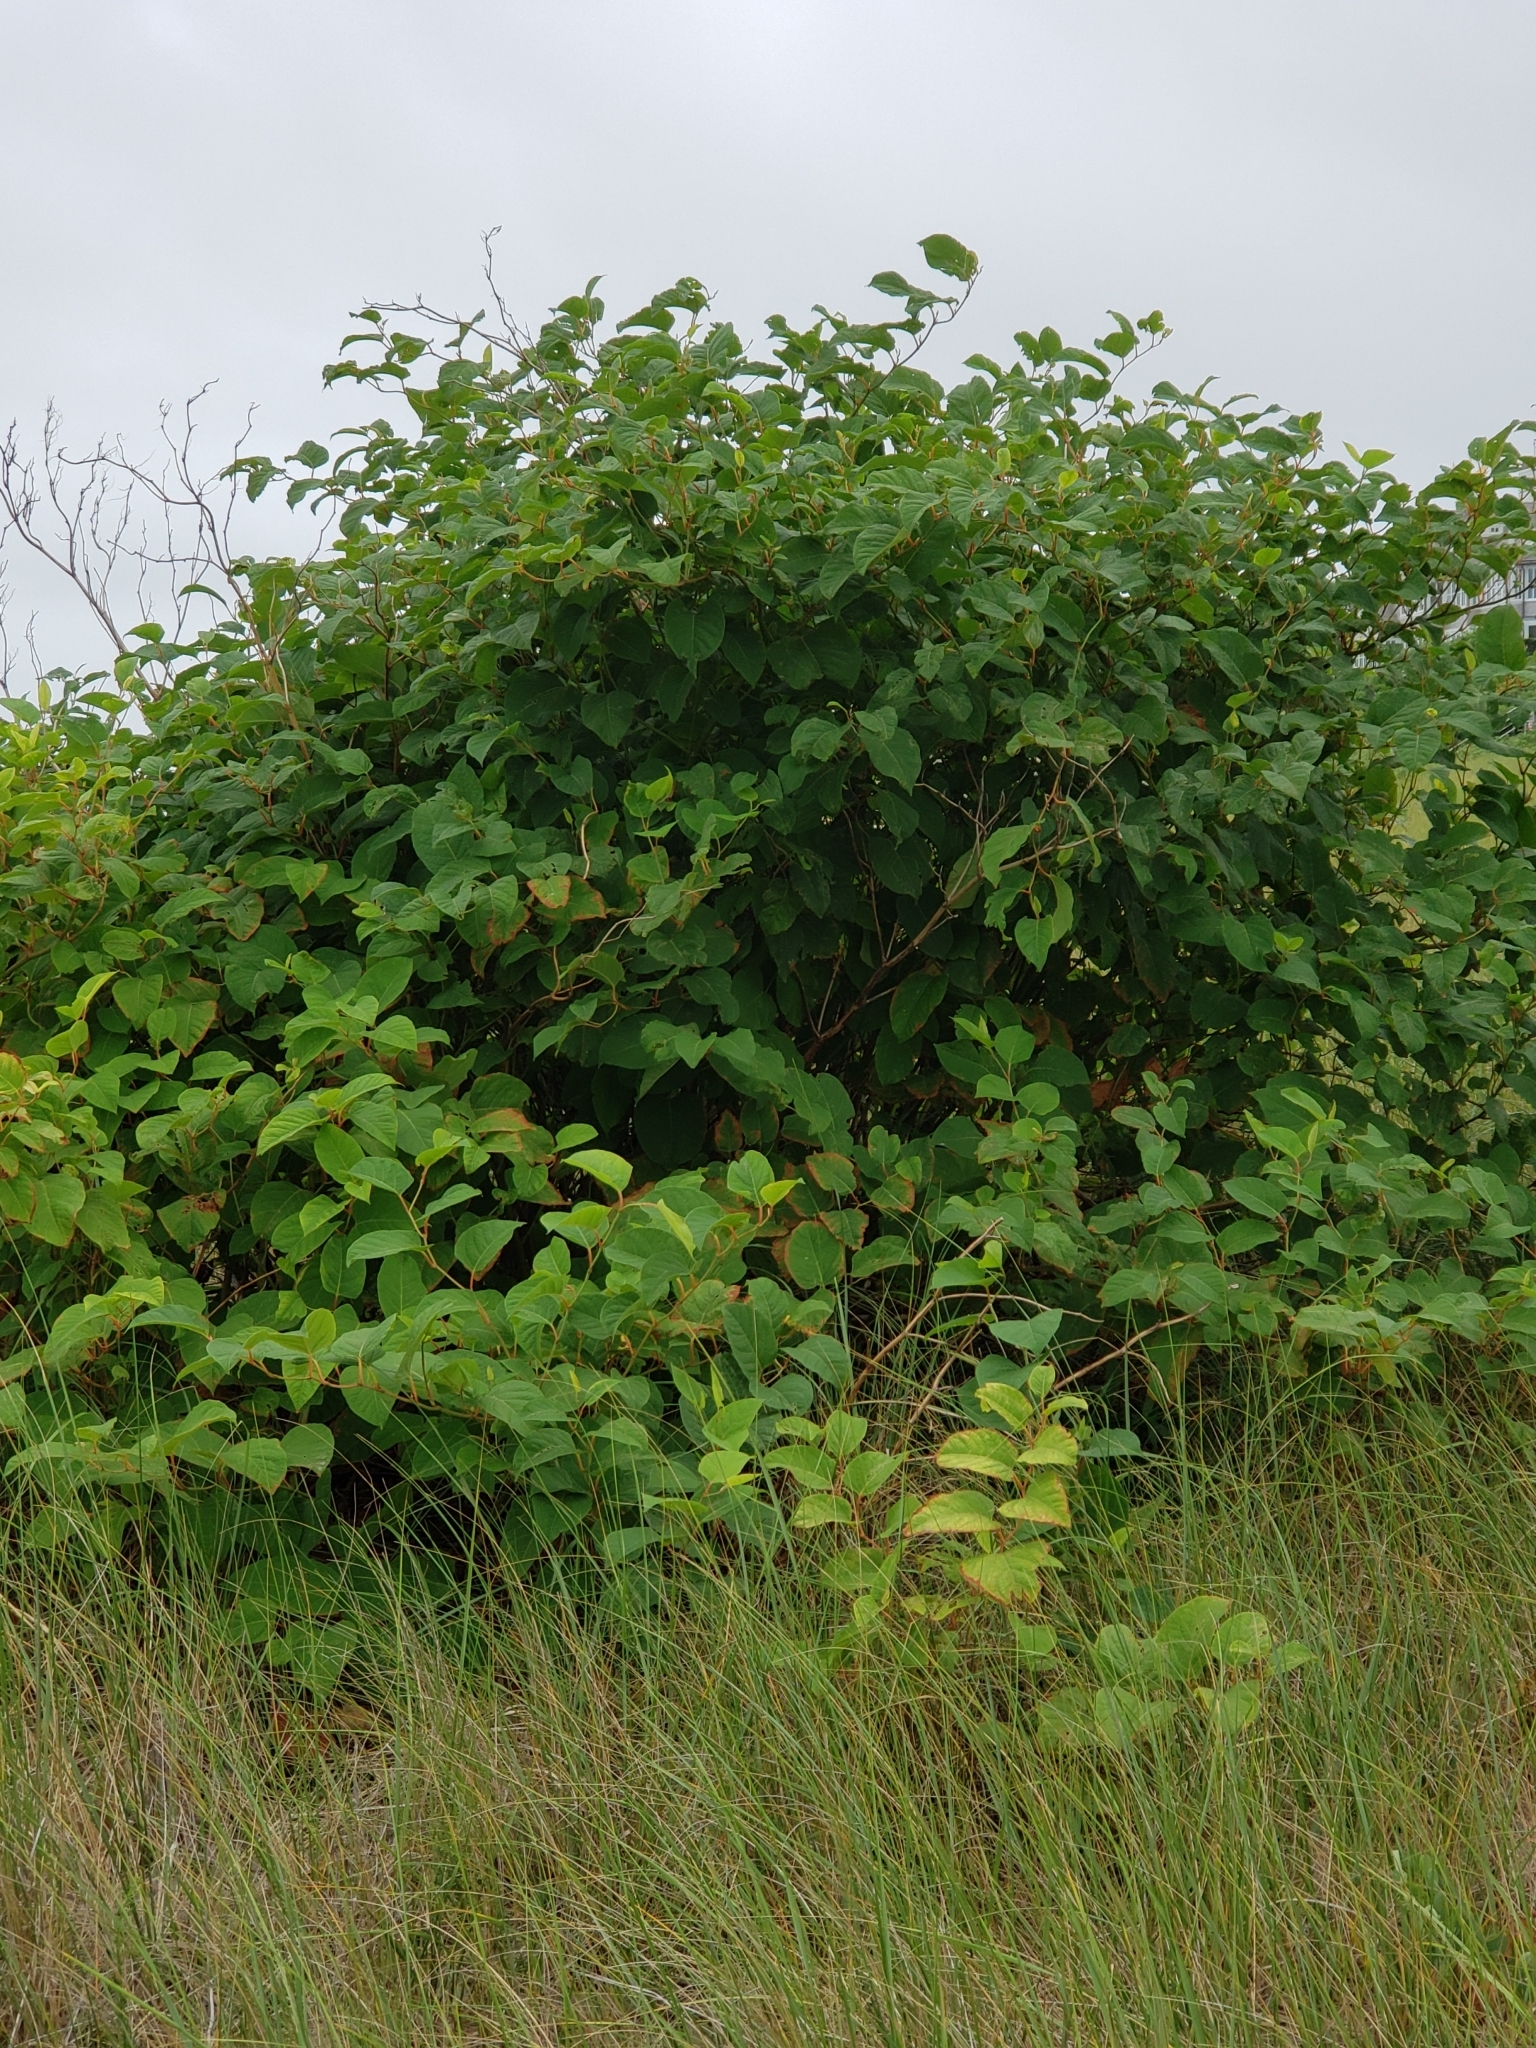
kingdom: Plantae
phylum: Tracheophyta
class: Magnoliopsida
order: Caryophyllales
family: Polygonaceae
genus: Reynoutria
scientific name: Reynoutria japonica
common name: Japanese knotweed
